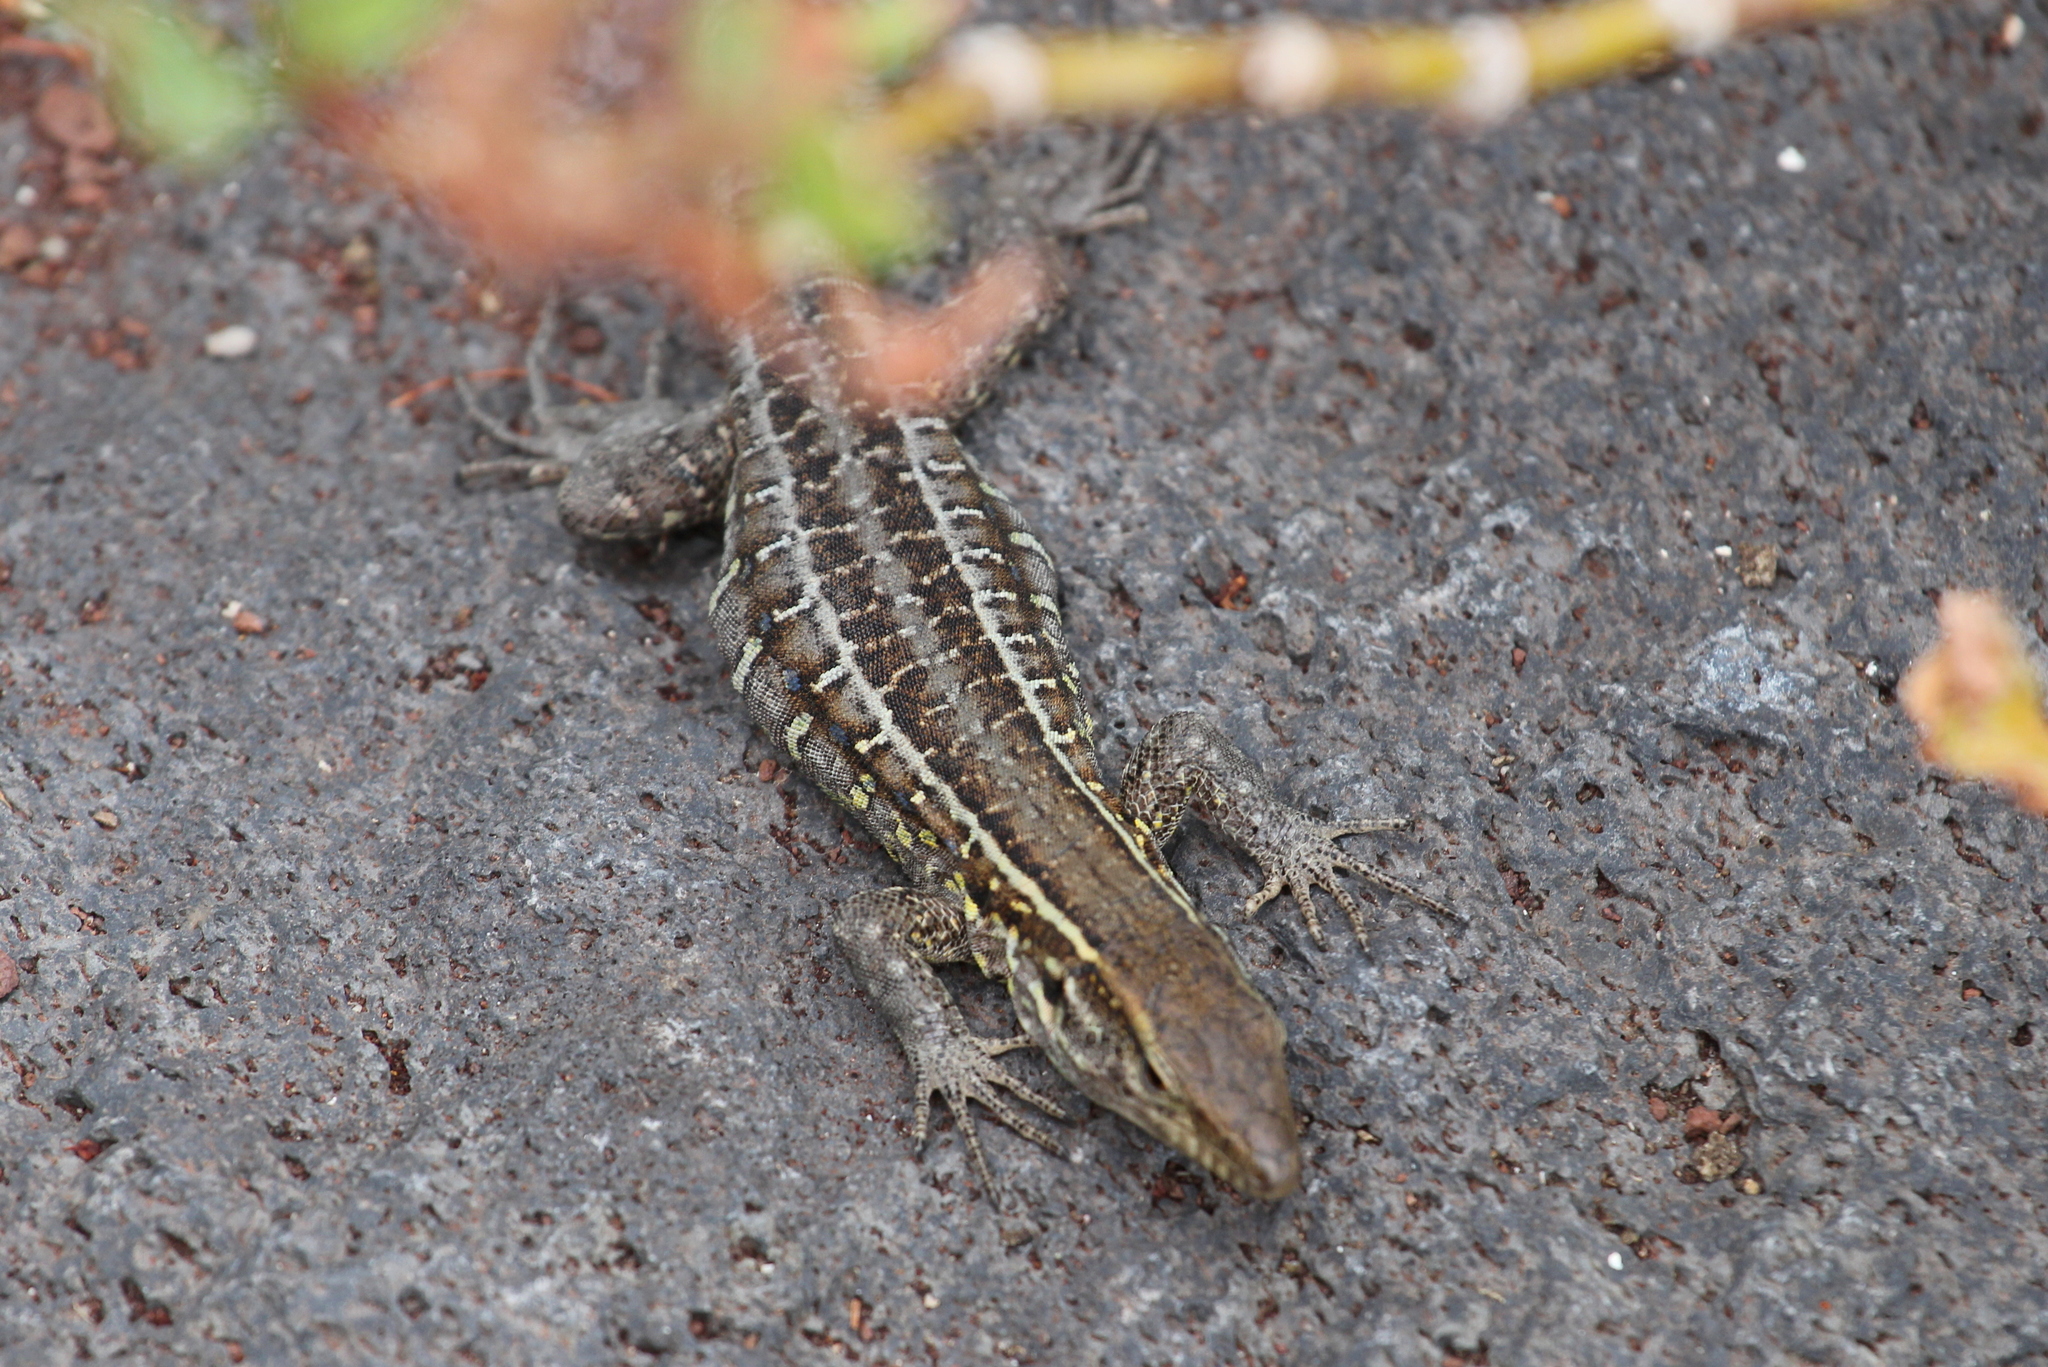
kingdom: Animalia
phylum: Chordata
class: Squamata
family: Lacertidae
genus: Gallotia
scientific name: Gallotia galloti
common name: Gallot's lizard
